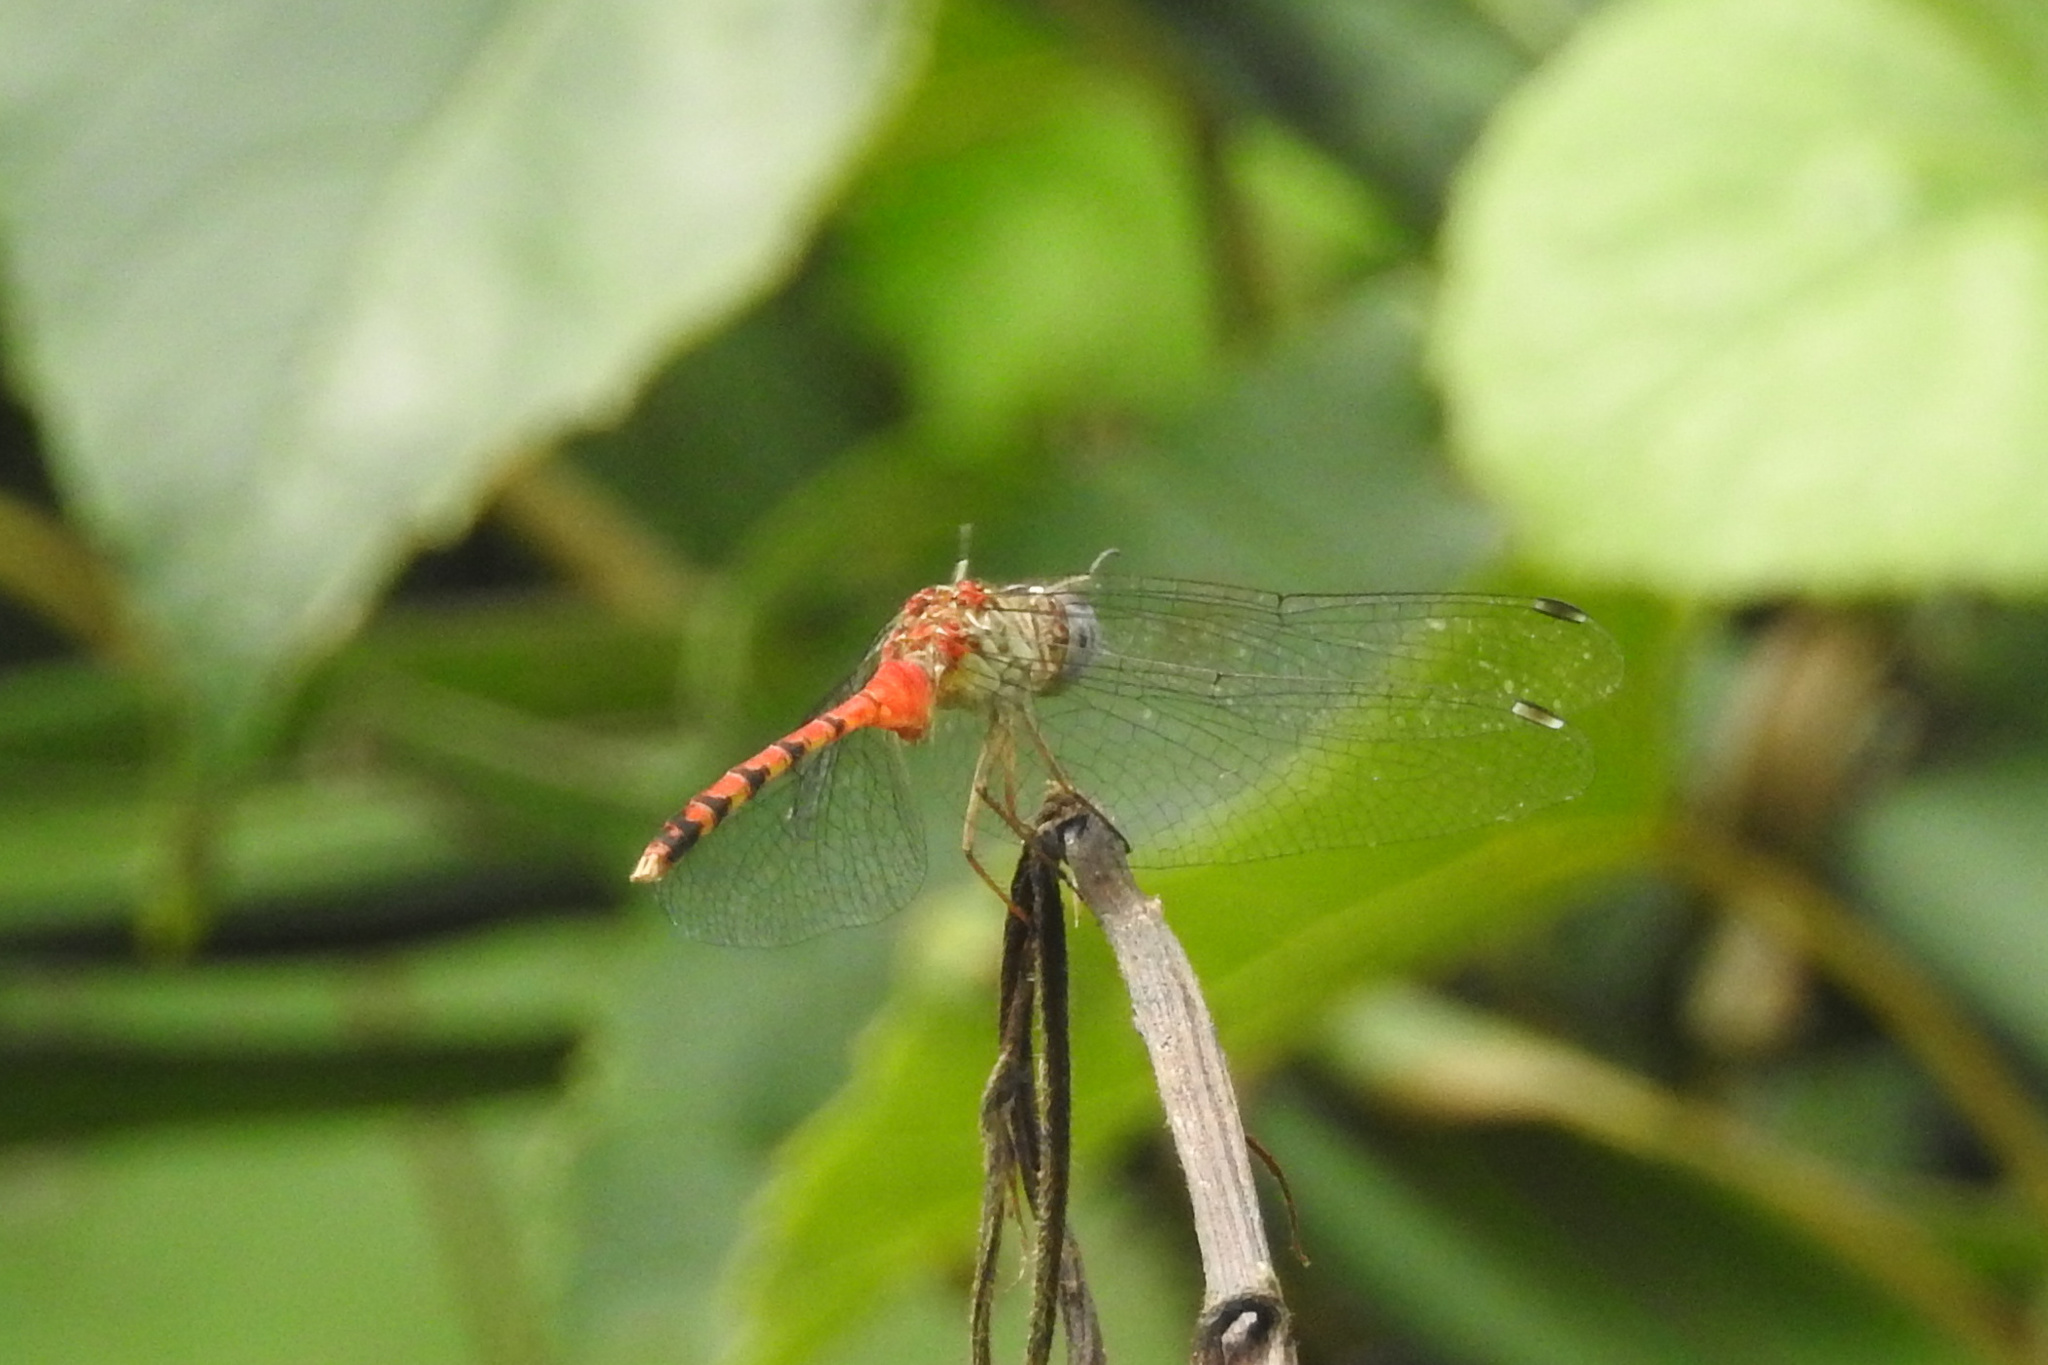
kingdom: Animalia
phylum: Arthropoda
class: Insecta
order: Odonata
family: Libellulidae
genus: Sympetrum
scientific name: Sympetrum ambiguum
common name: Blue-faced meadowhawk
